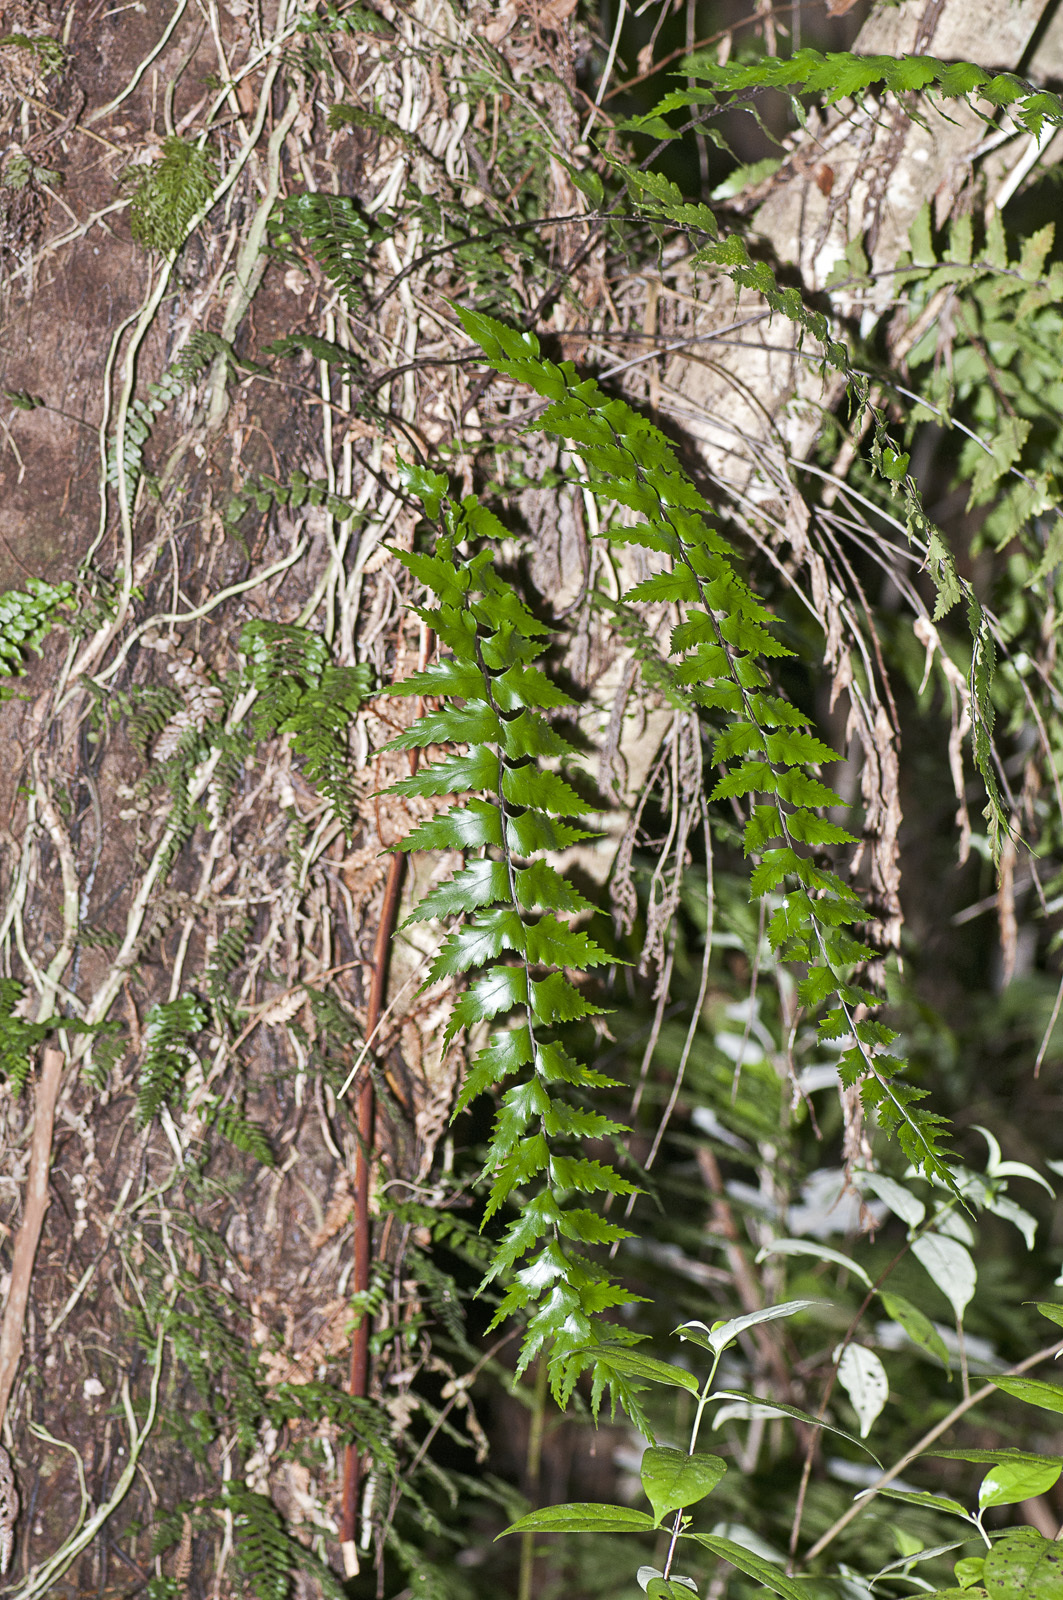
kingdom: Plantae
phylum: Tracheophyta
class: Polypodiopsida
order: Polypodiales
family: Aspleniaceae
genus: Asplenium
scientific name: Asplenium polyodon
